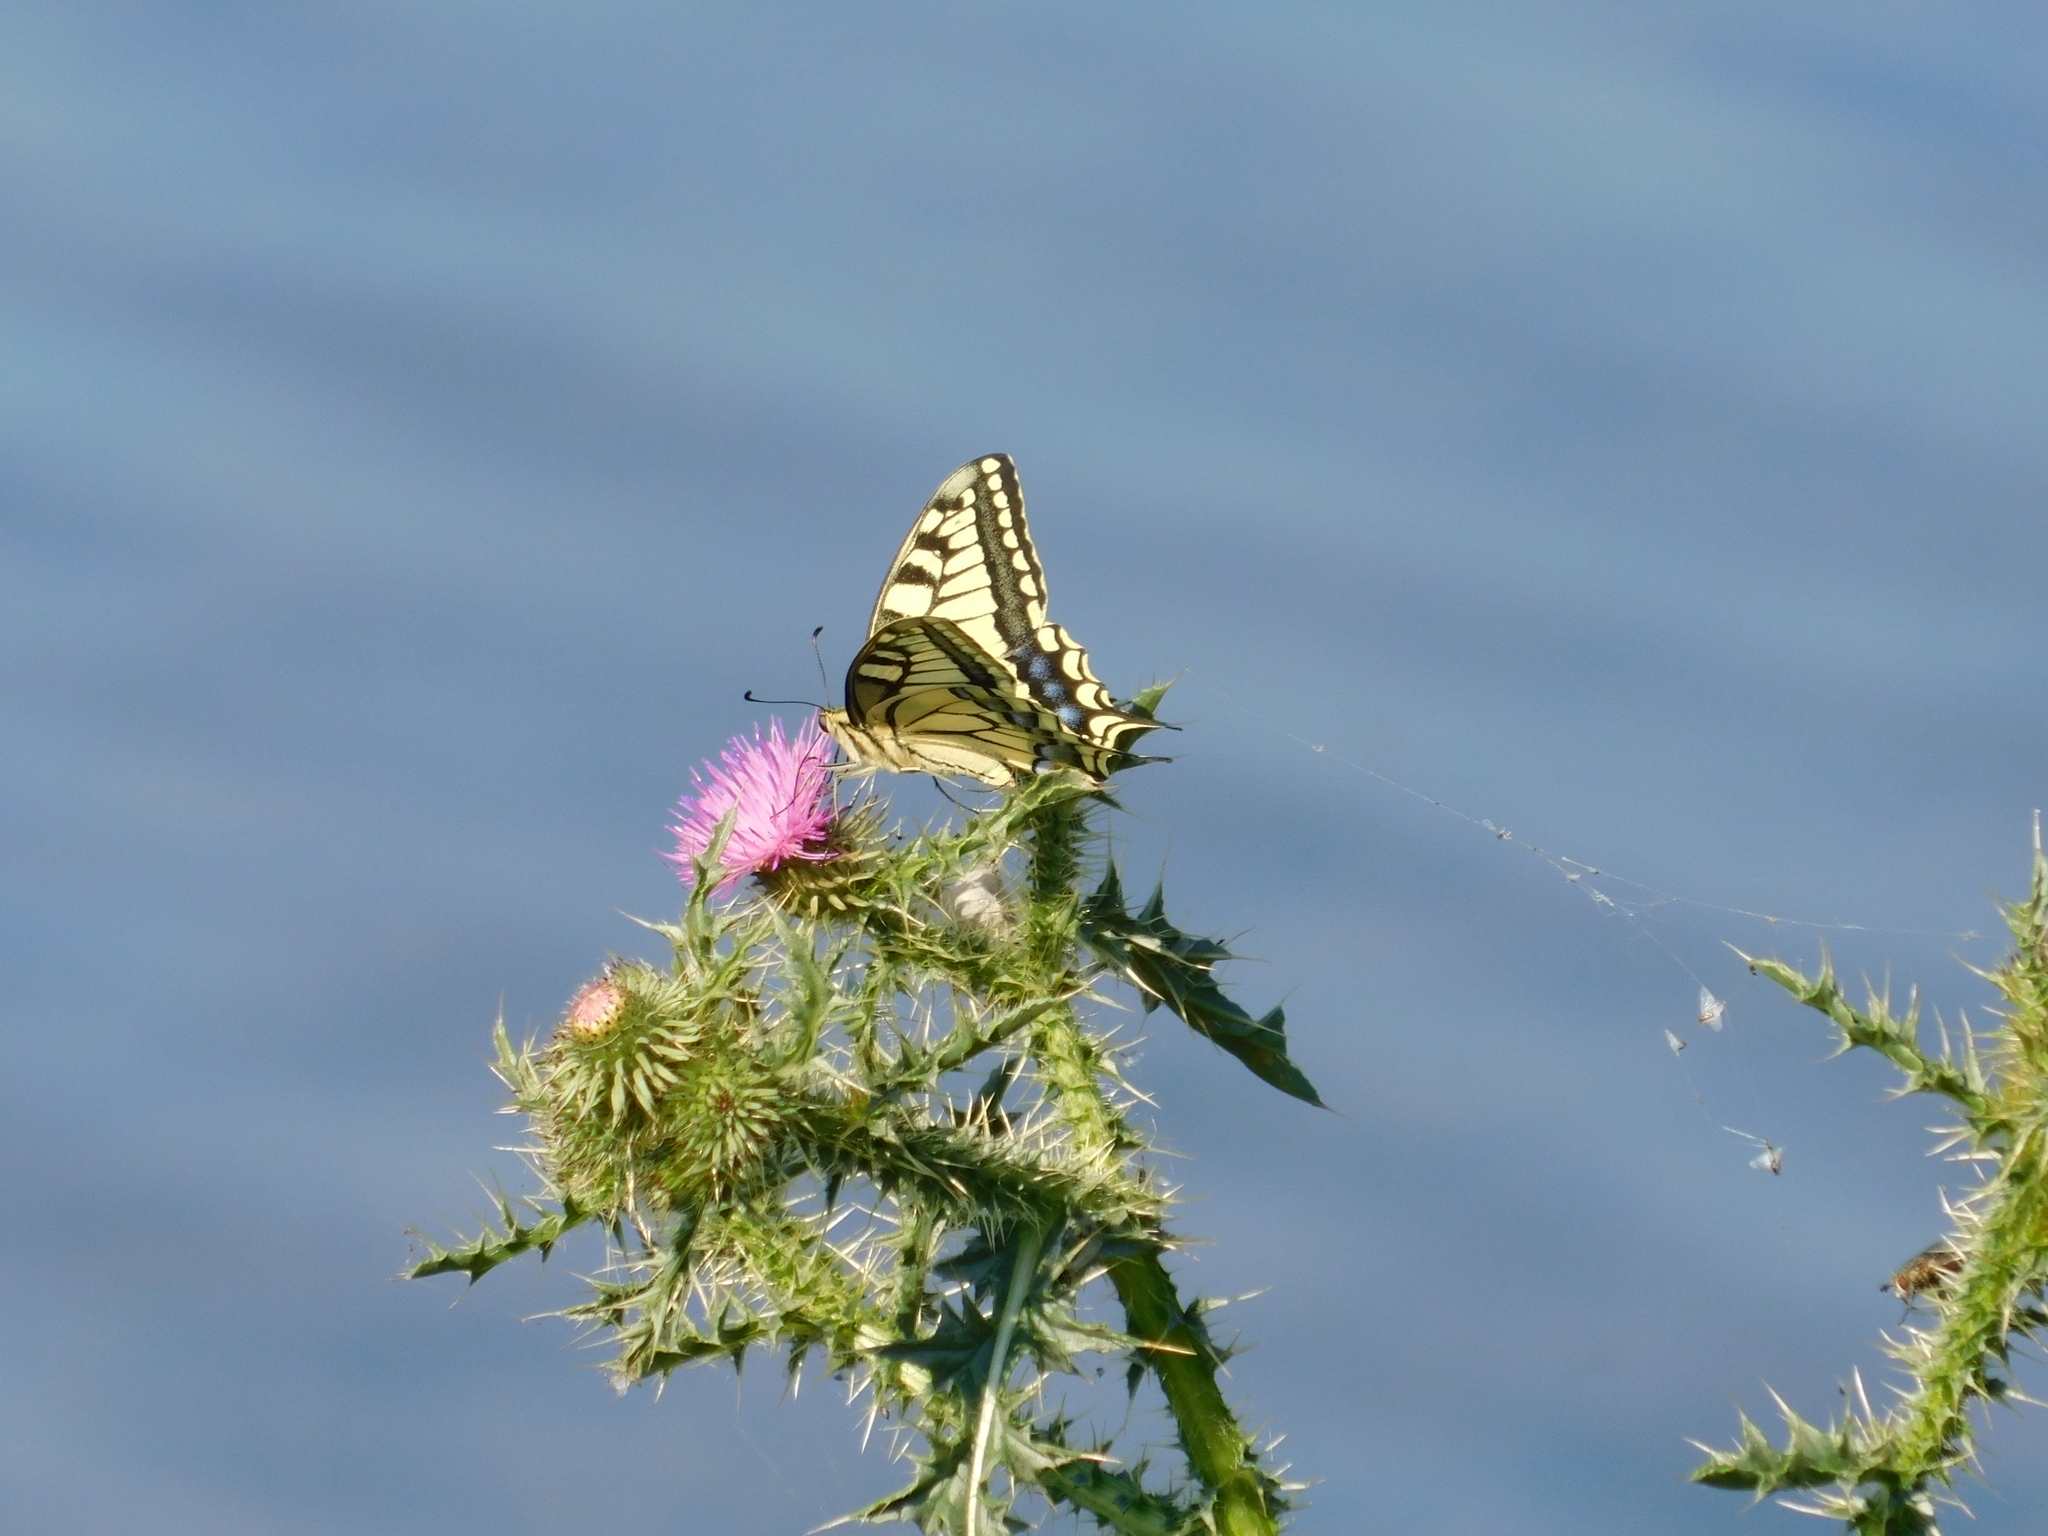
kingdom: Animalia
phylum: Arthropoda
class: Insecta
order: Lepidoptera
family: Papilionidae
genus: Papilio
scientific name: Papilio machaon
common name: Swallowtail
